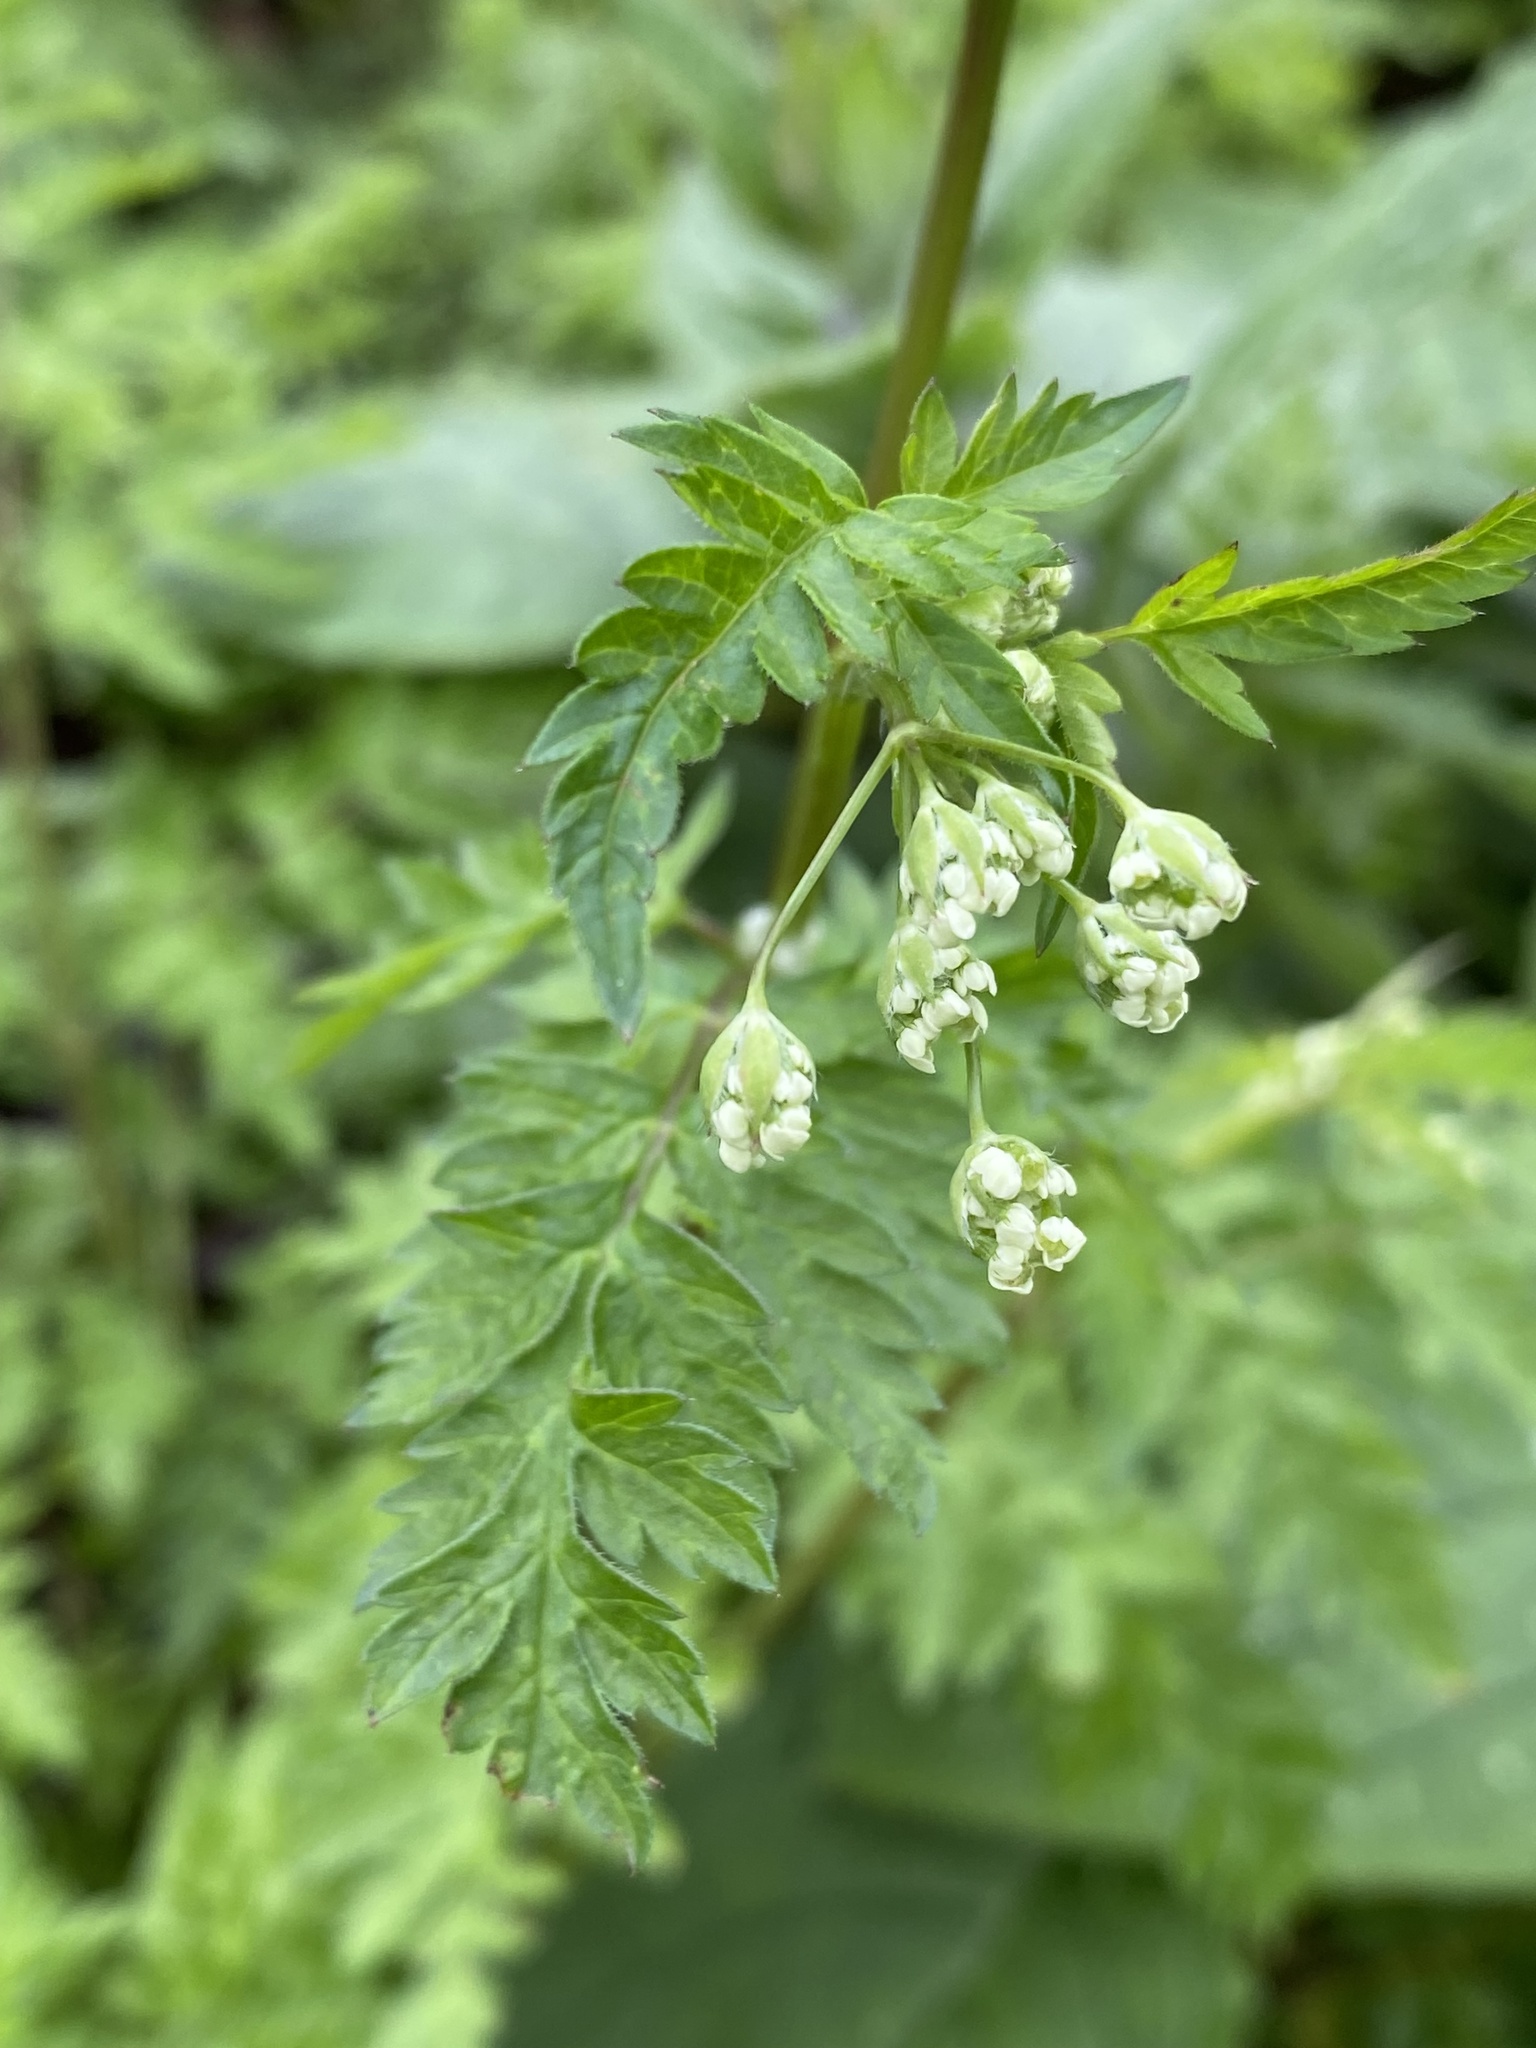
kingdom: Plantae
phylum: Tracheophyta
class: Magnoliopsida
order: Apiales
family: Apiaceae
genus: Anthriscus
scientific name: Anthriscus sylvestris
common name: Cow parsley
